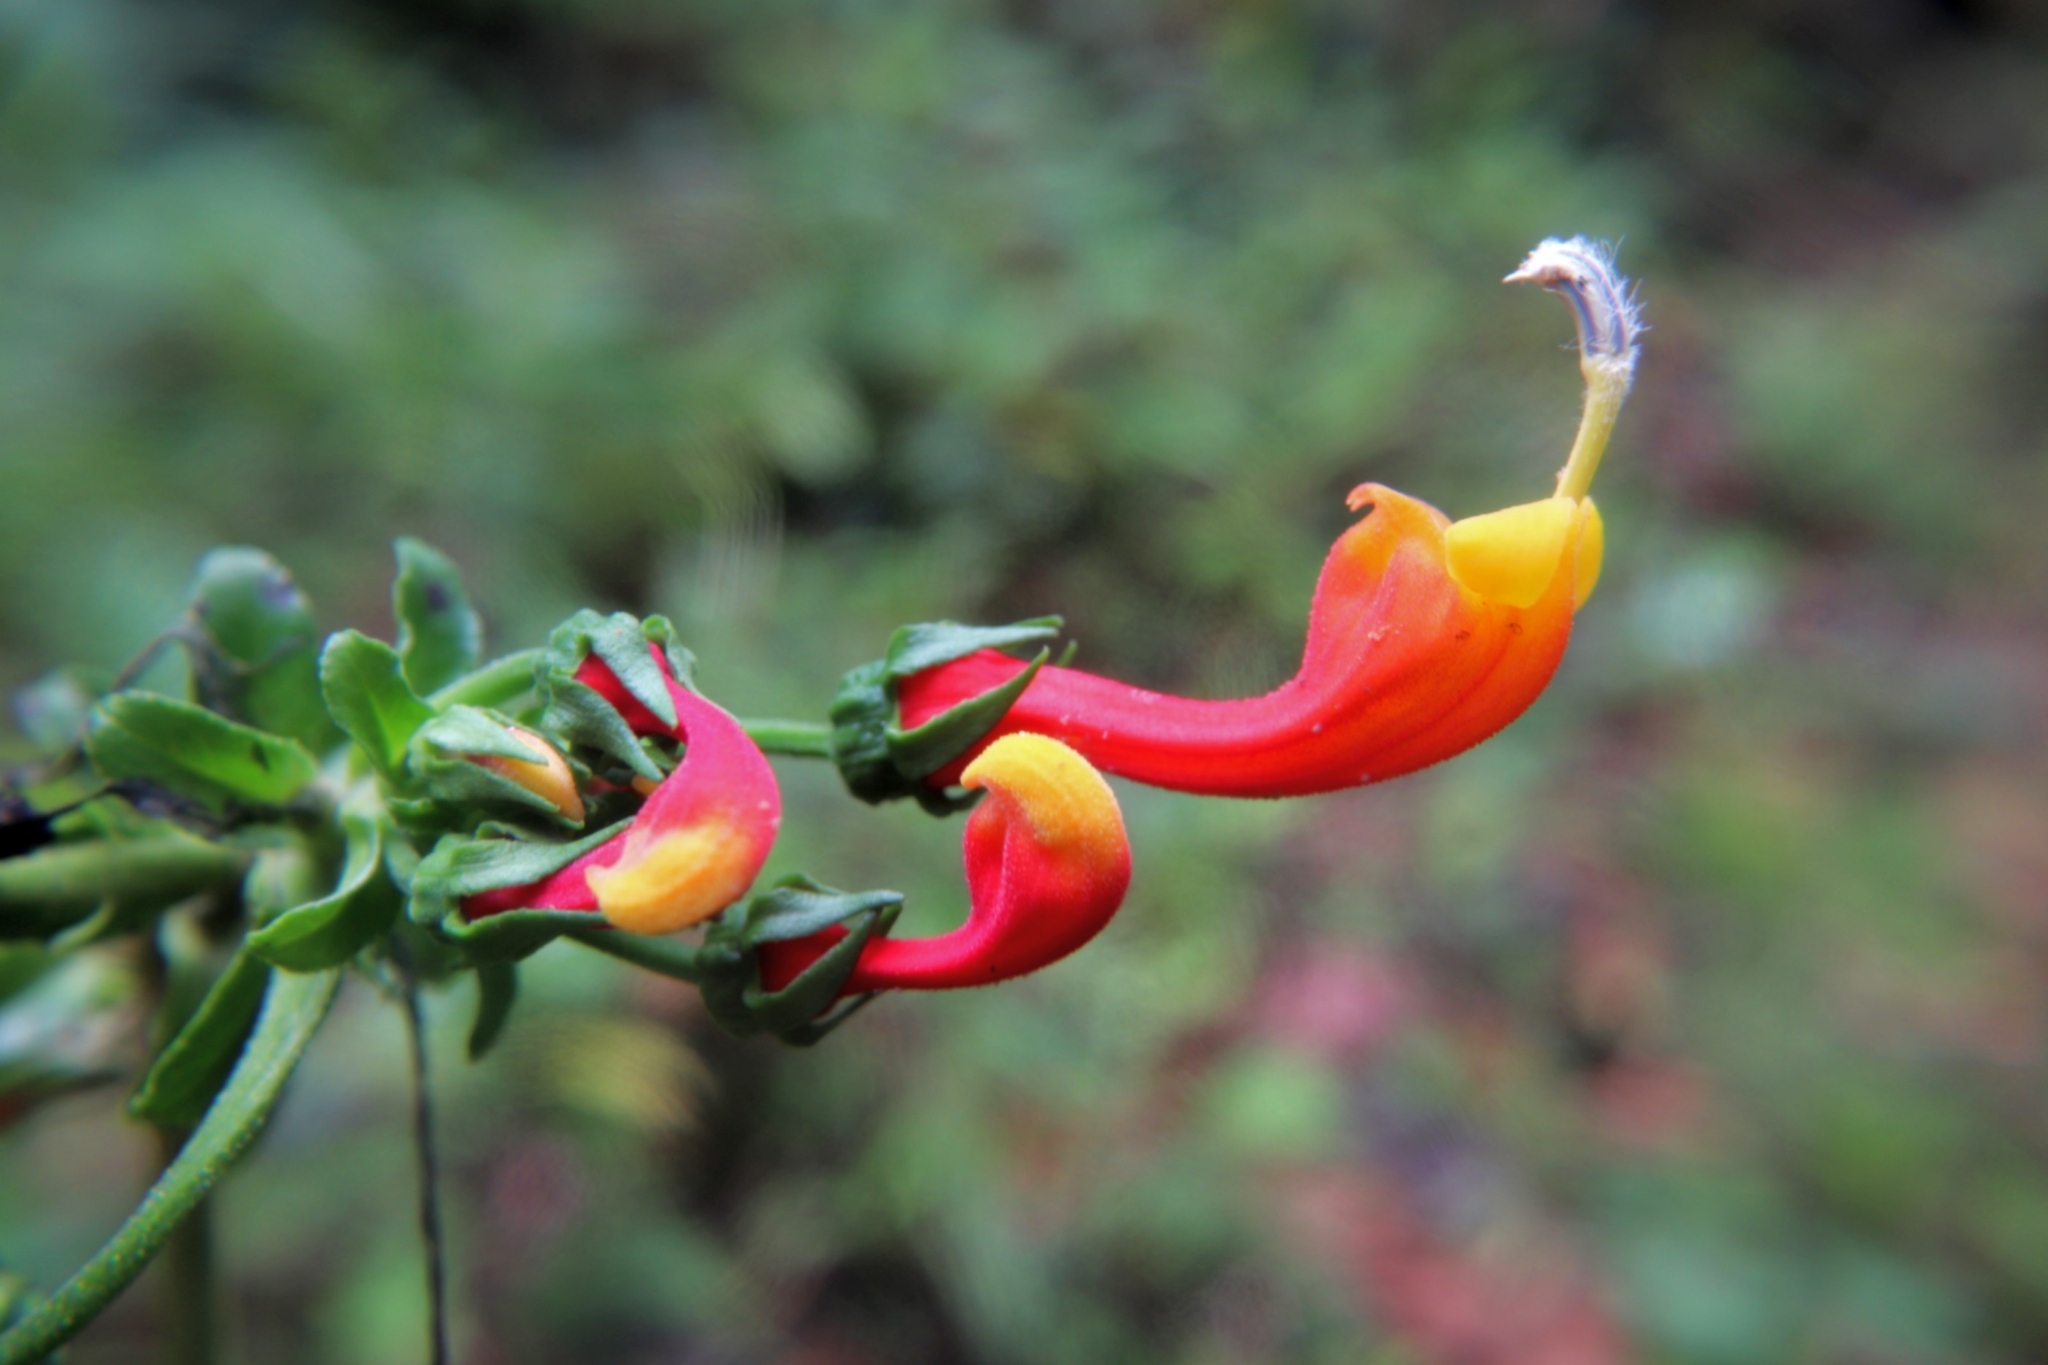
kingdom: Plantae
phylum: Tracheophyta
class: Magnoliopsida
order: Asterales
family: Campanulaceae
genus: Centropogon
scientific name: Centropogon granulosus
